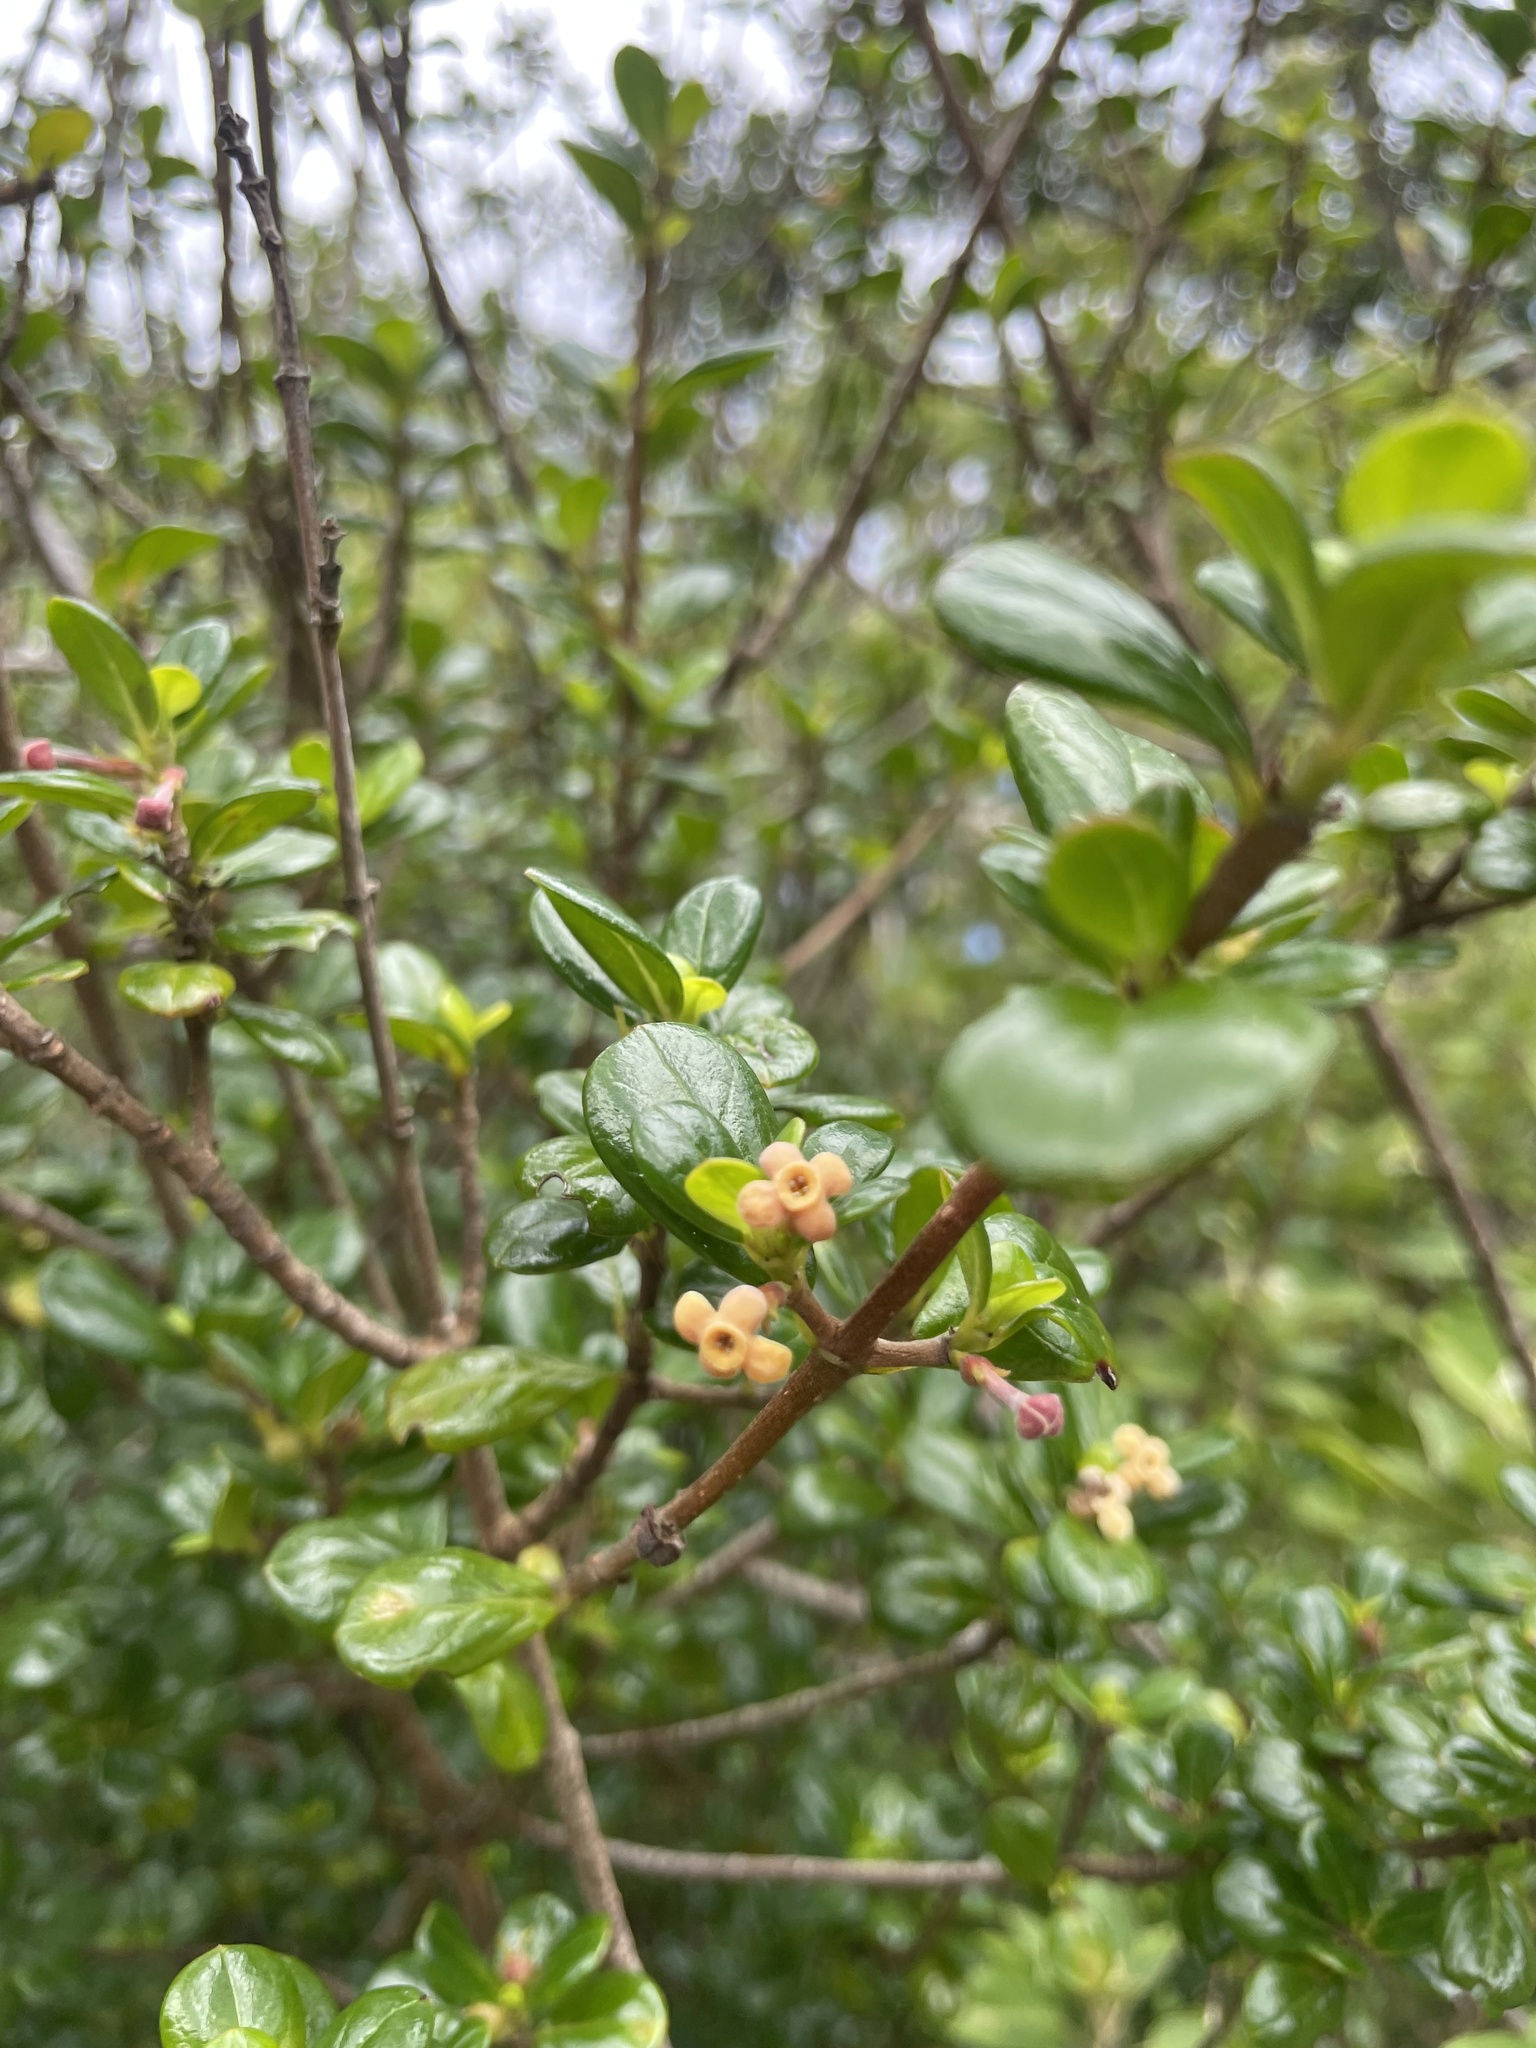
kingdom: Plantae
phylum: Tracheophyta
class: Magnoliopsida
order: Gentianales
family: Rubiaceae
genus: Rondeletia
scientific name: Rondeletia buxifolia
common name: Pribby
